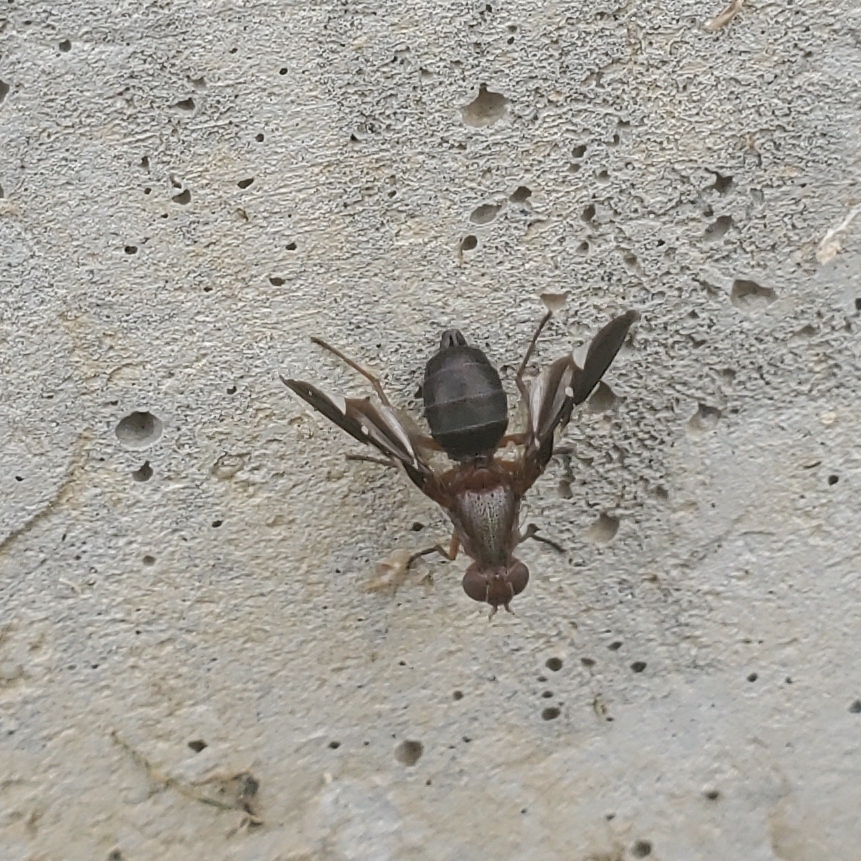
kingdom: Animalia
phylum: Arthropoda
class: Insecta
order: Diptera
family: Ulidiidae
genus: Delphinia
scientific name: Delphinia picta
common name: Common picture-winged fly
